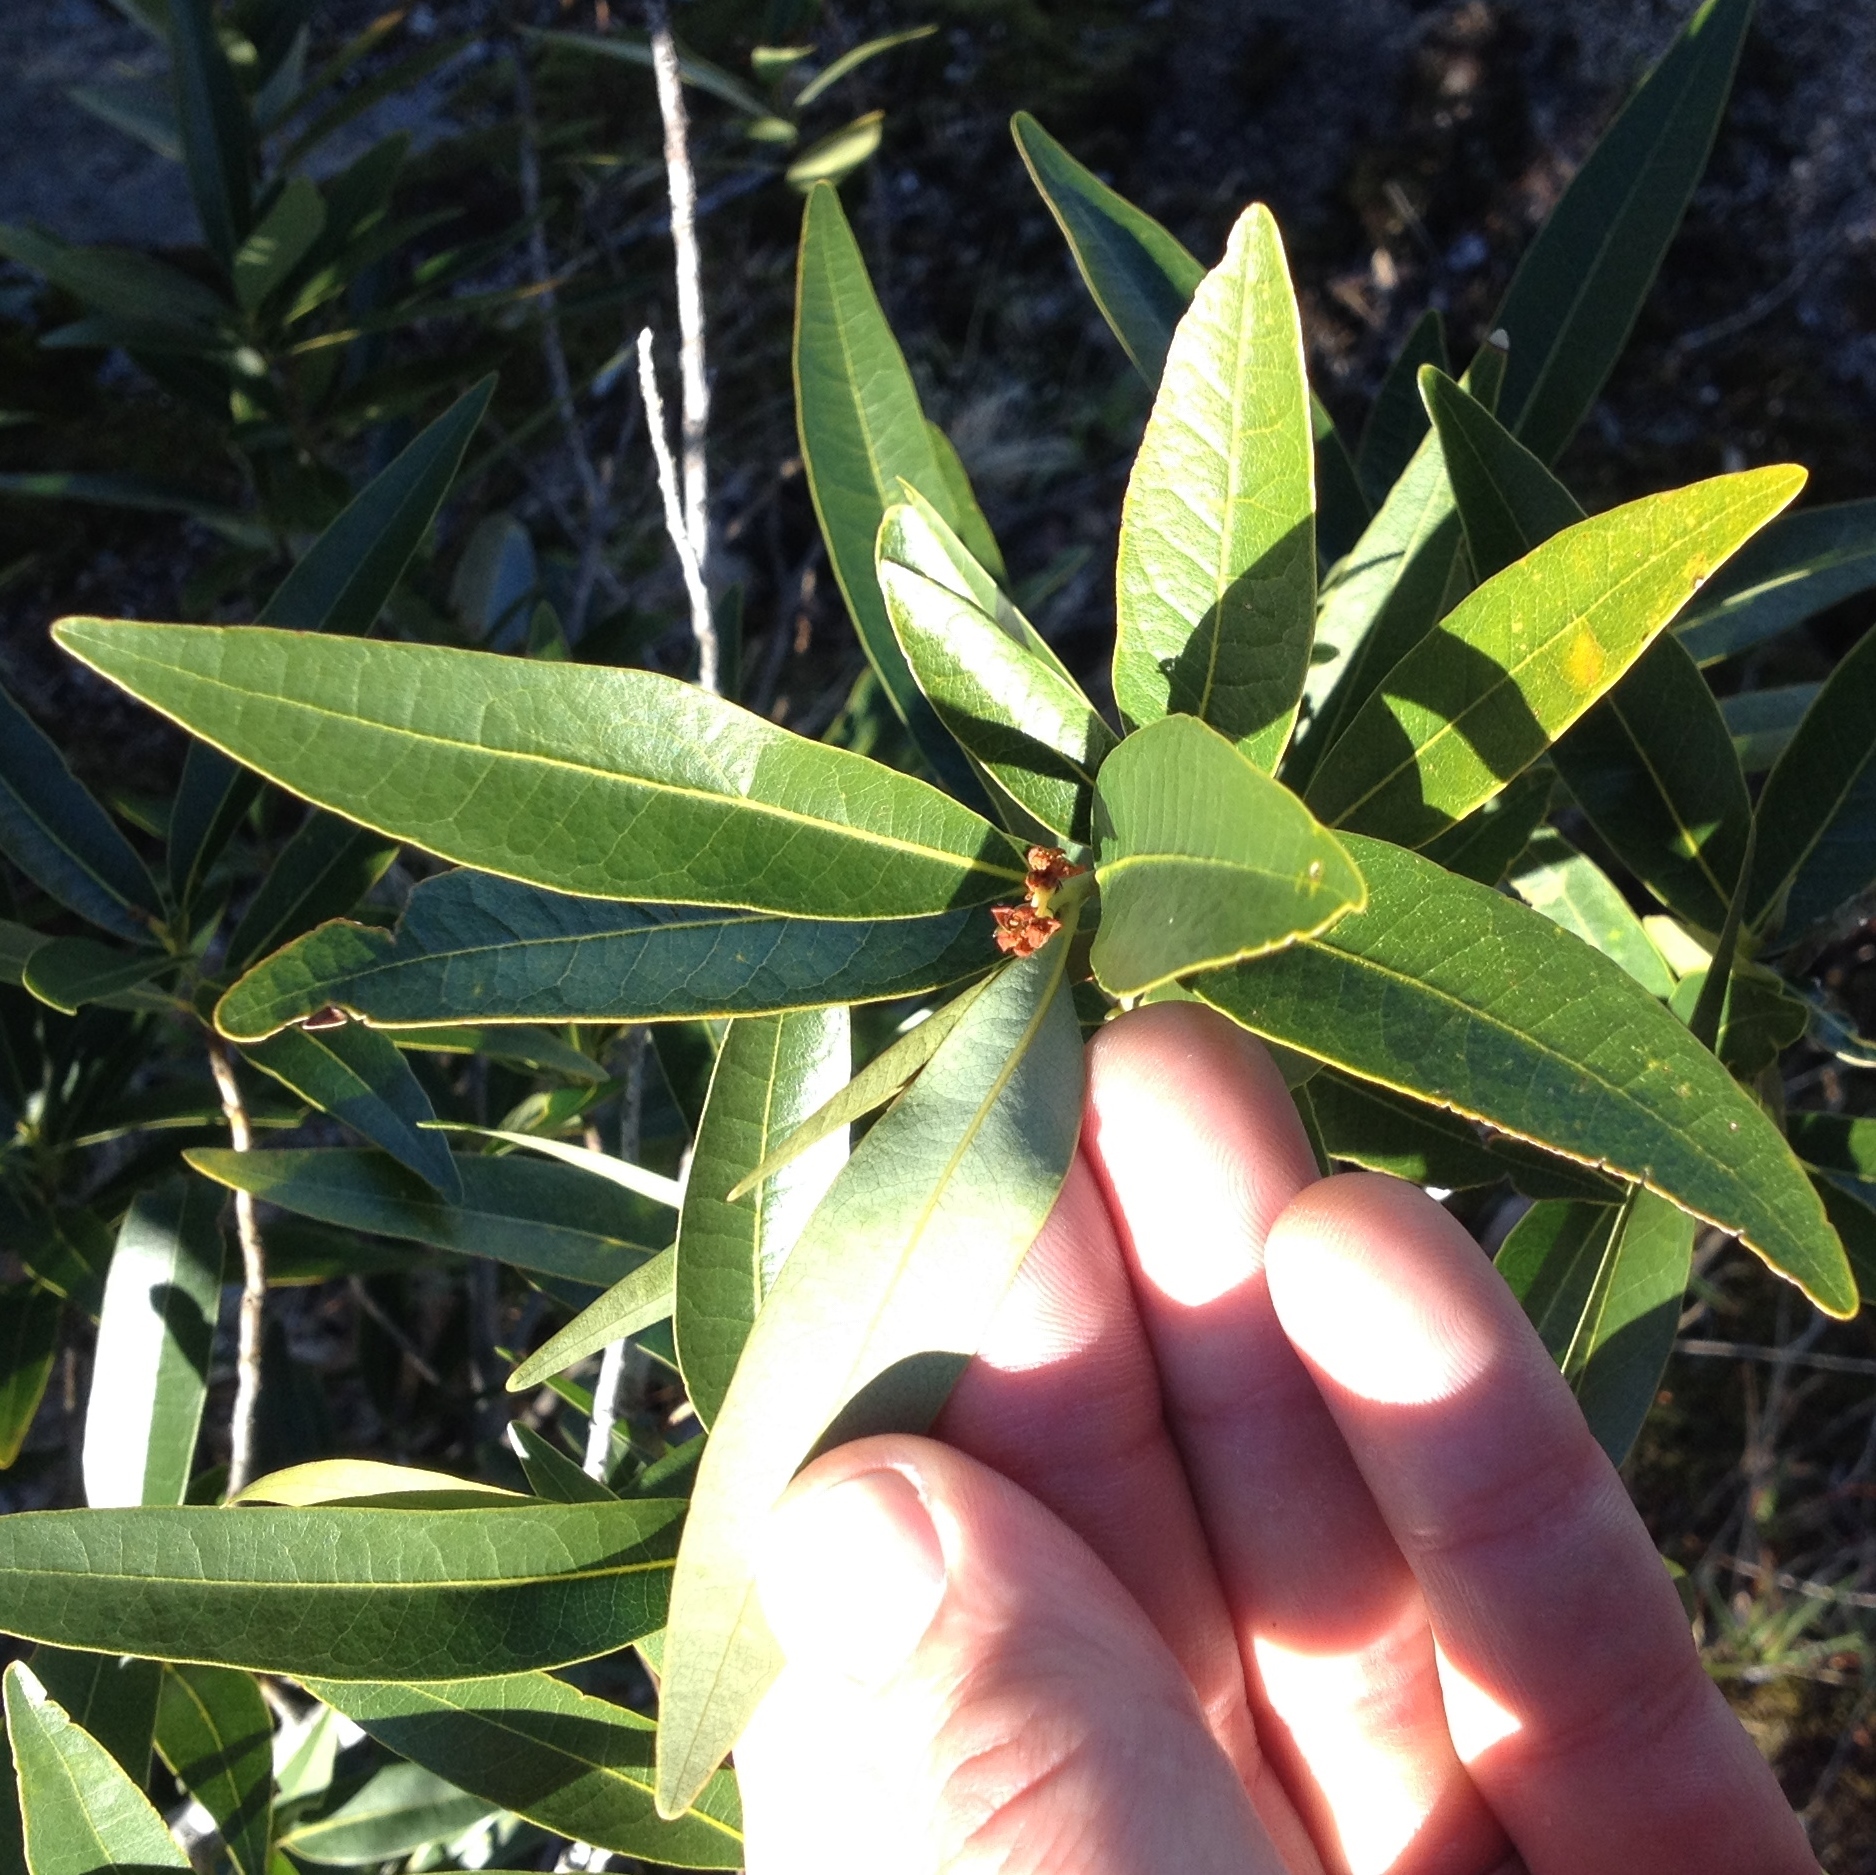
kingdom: Plantae
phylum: Tracheophyta
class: Magnoliopsida
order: Laurales
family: Lauraceae
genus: Umbellularia
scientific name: Umbellularia californica
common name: California bay
